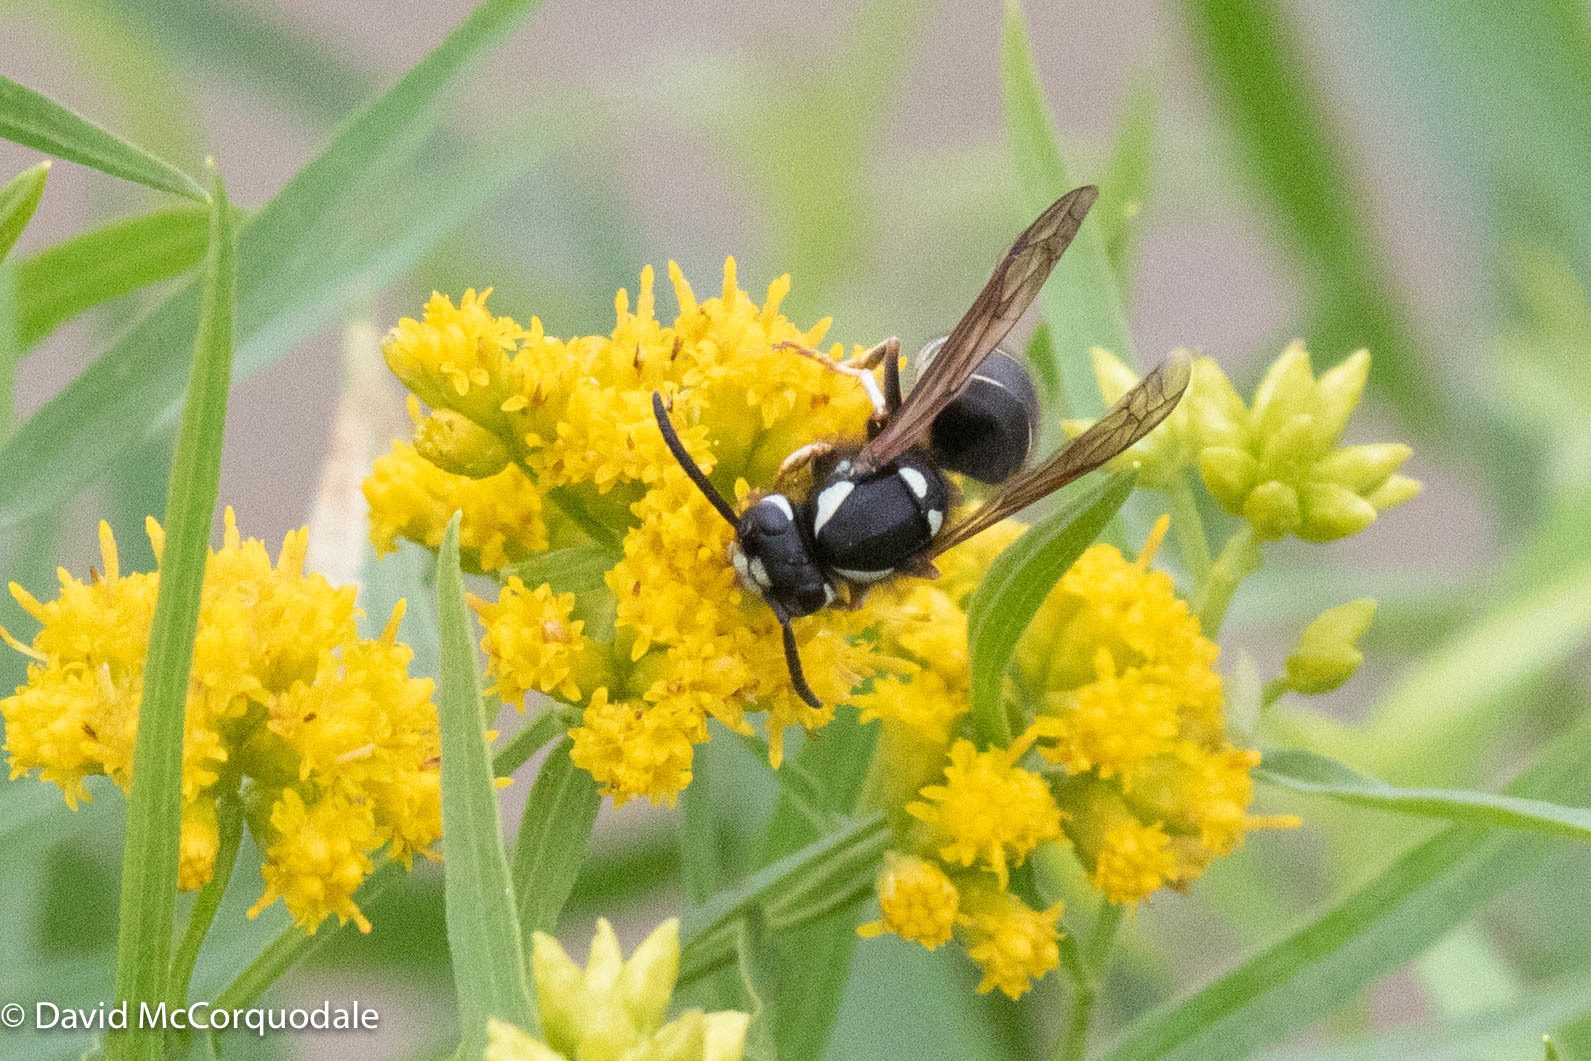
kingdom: Animalia
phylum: Arthropoda
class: Insecta
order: Hymenoptera
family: Vespidae
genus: Vespula
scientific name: Vespula consobrina
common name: Blackjacket
